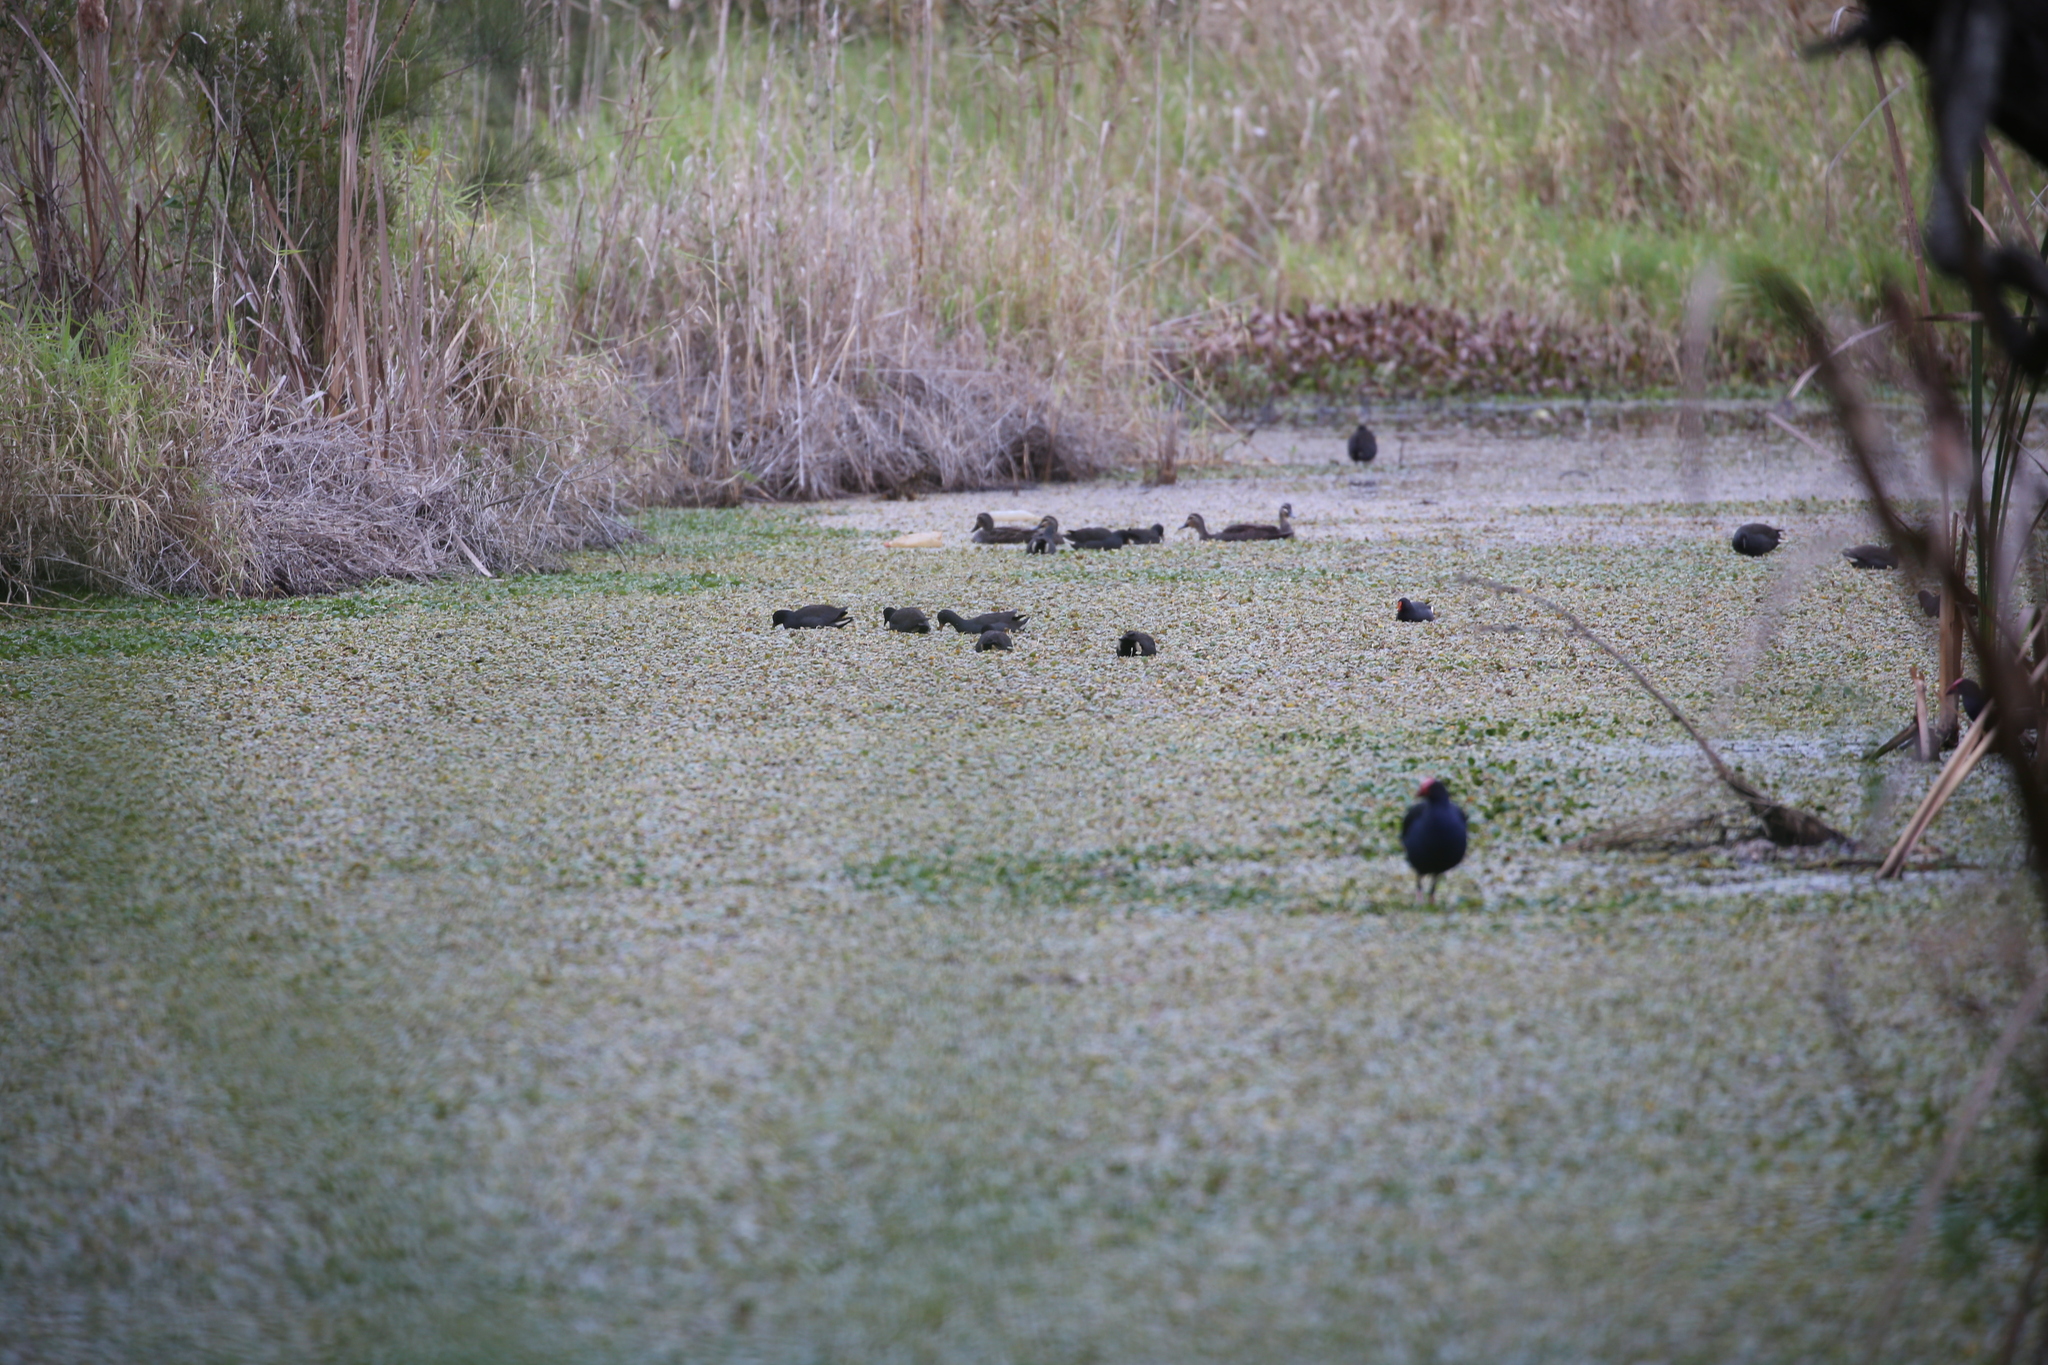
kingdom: Animalia
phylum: Chordata
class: Aves
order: Gruiformes
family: Rallidae
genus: Gallinula
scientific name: Gallinula tenebrosa
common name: Dusky moorhen
